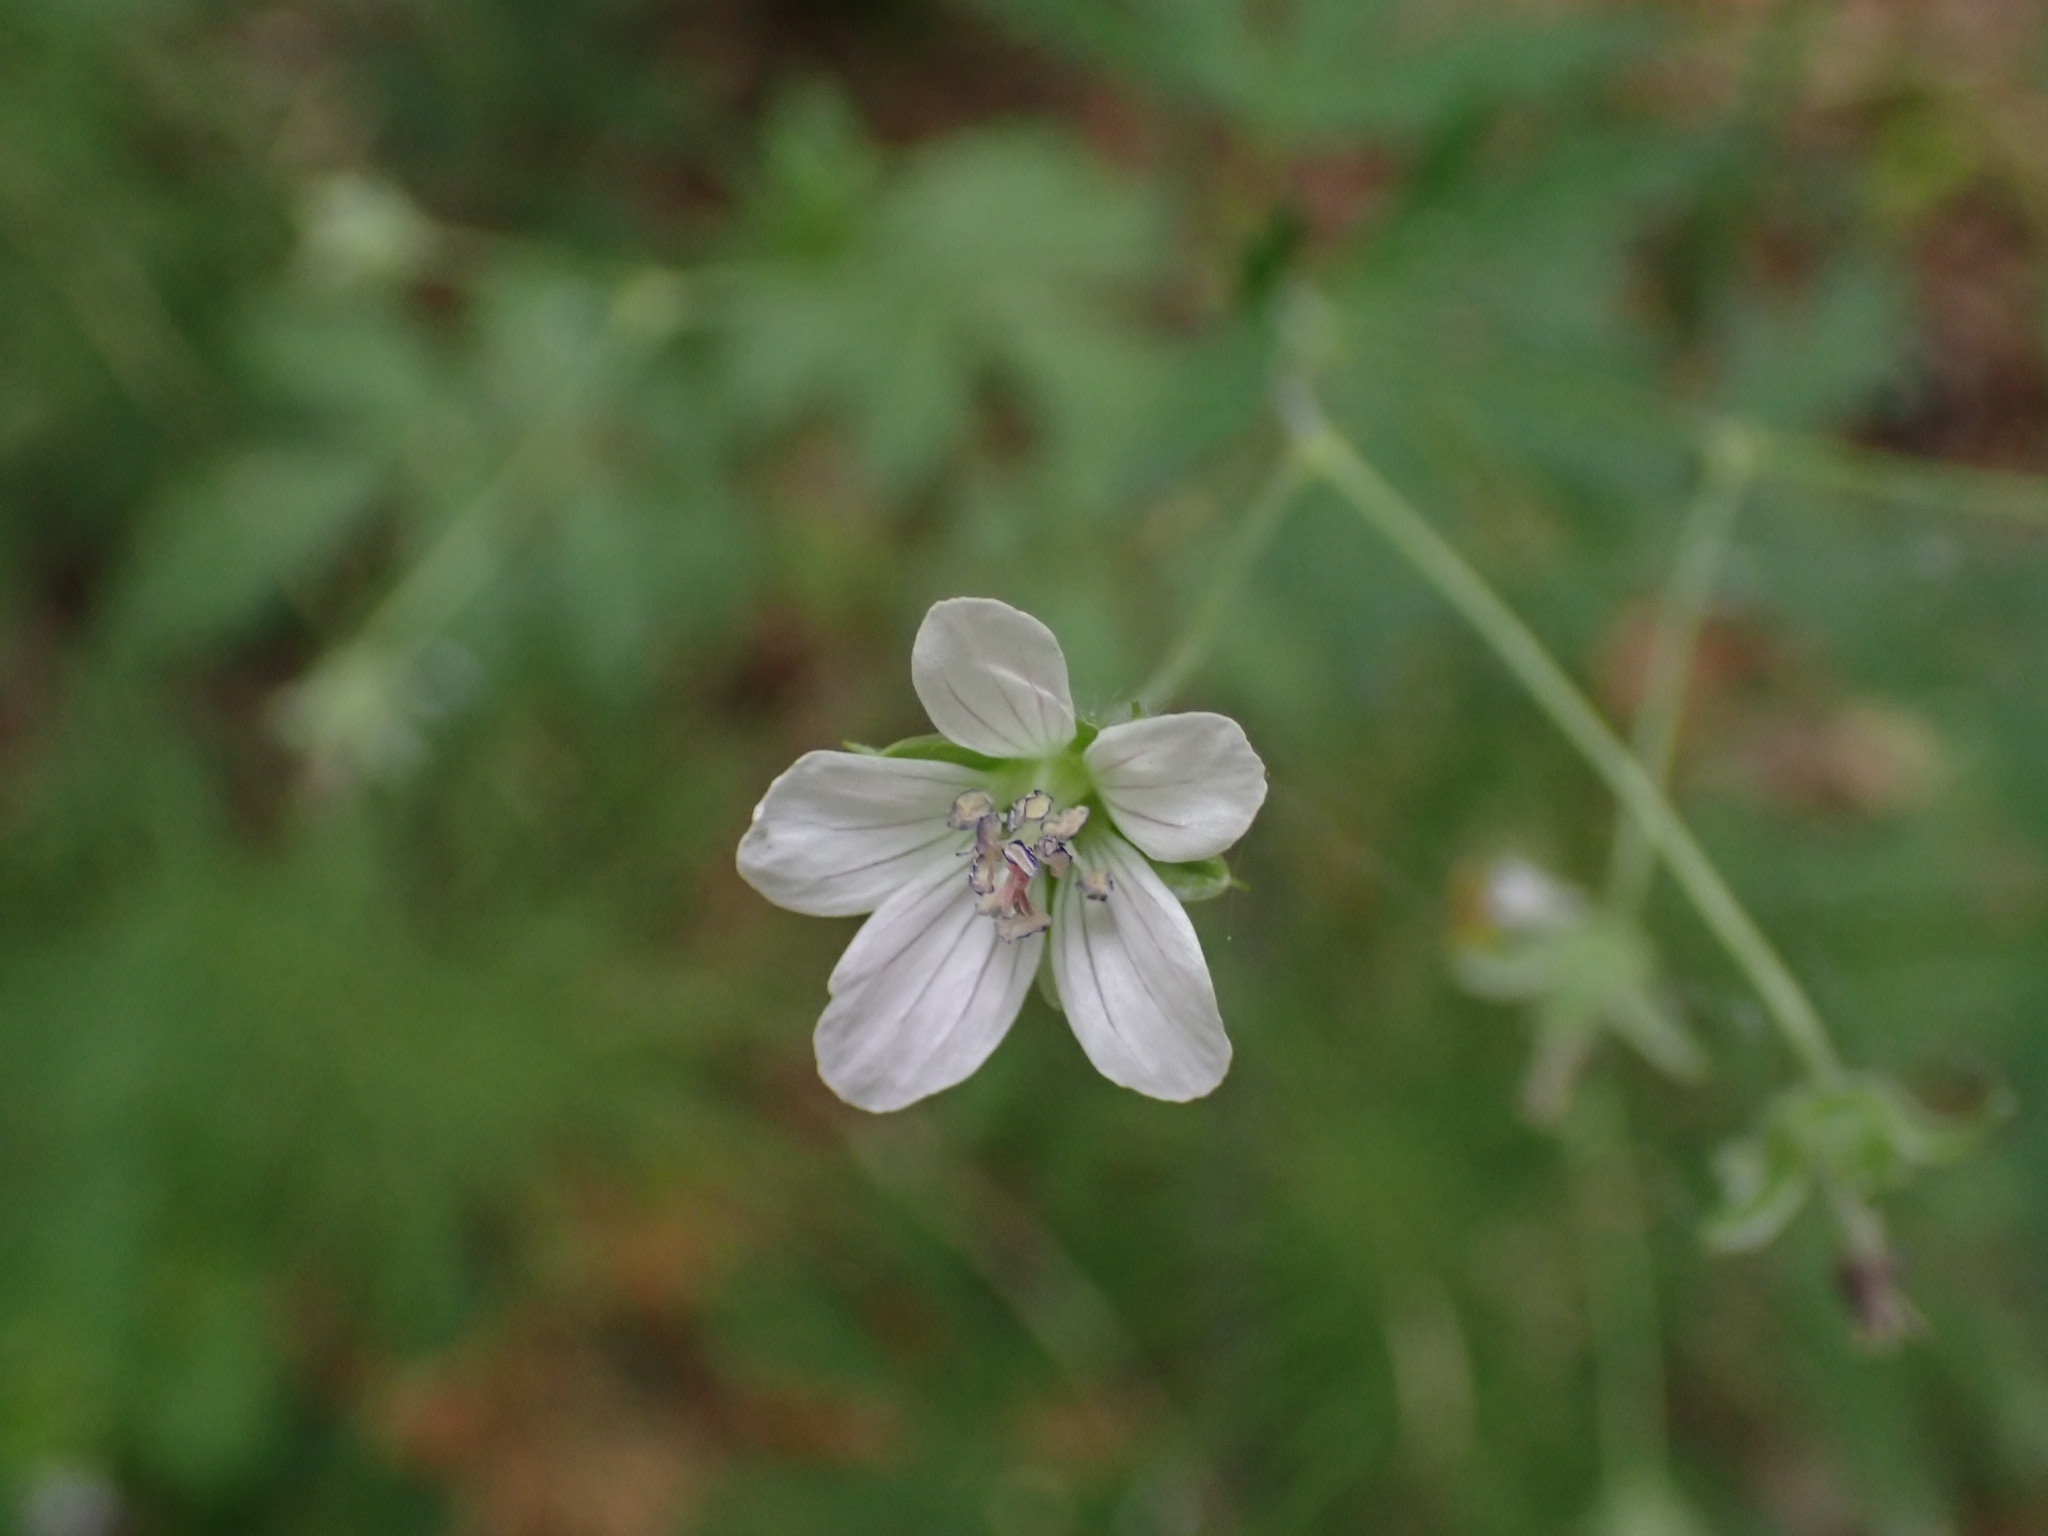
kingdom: Plantae
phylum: Tracheophyta
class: Magnoliopsida
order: Geraniales
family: Geraniaceae
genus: Geranium
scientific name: Geranium pseudosibiricum
